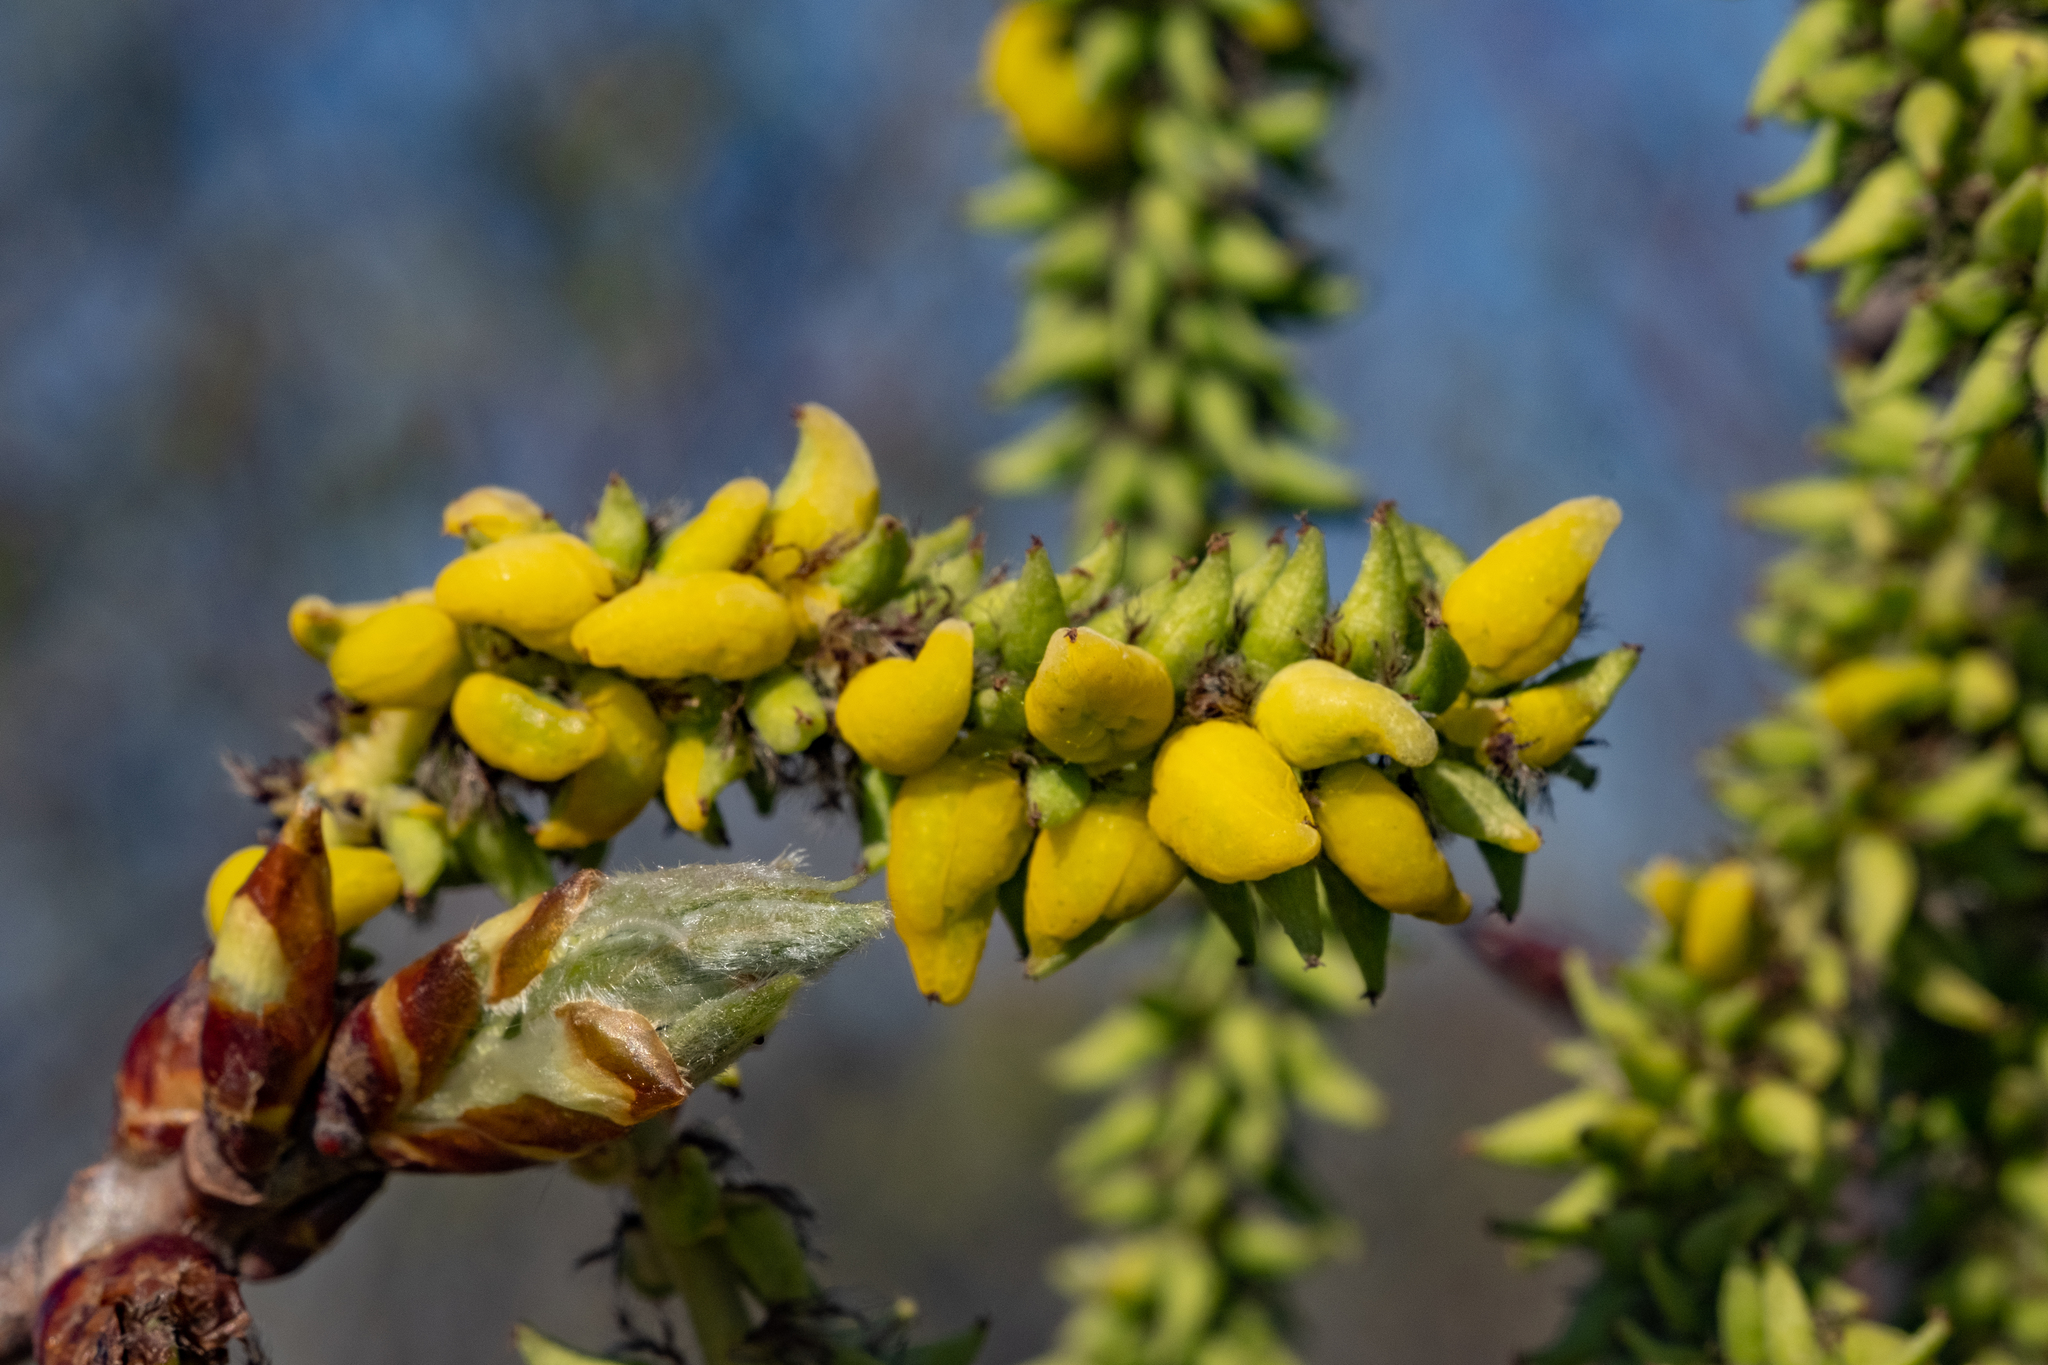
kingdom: Fungi
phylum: Ascomycota
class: Taphrinomycetes
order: Taphrinales
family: Taphrinaceae
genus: Taphrina
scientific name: Taphrina johansonii
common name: Aspen tongue
